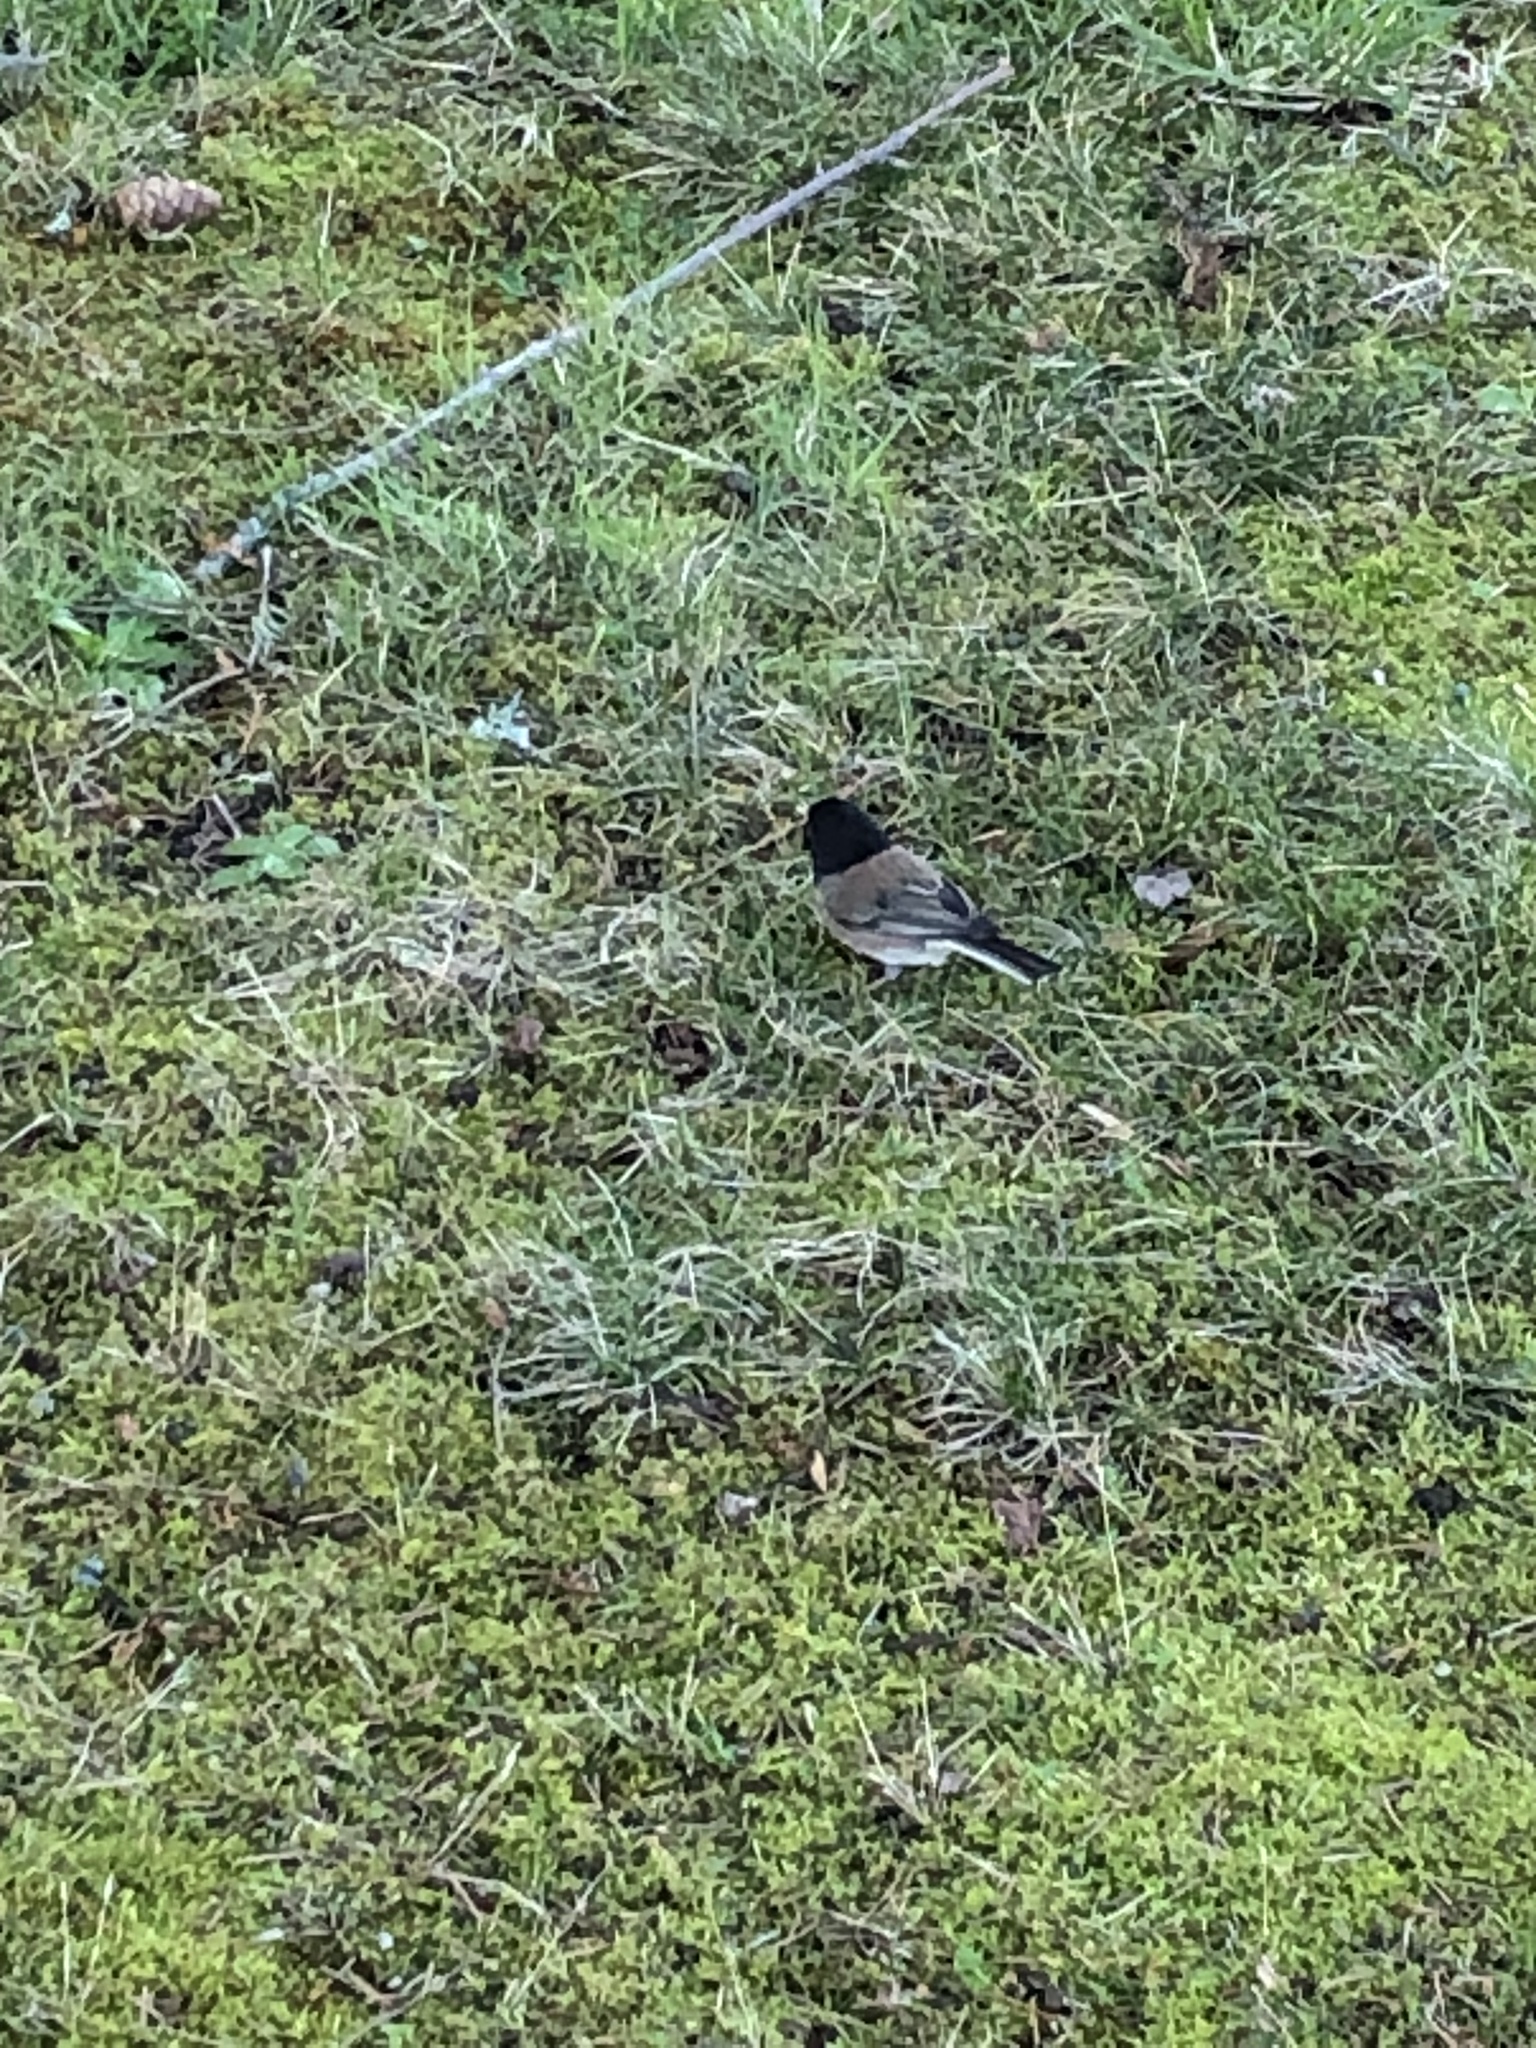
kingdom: Animalia
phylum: Chordata
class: Aves
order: Passeriformes
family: Passerellidae
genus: Junco
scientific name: Junco hyemalis
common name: Dark-eyed junco
